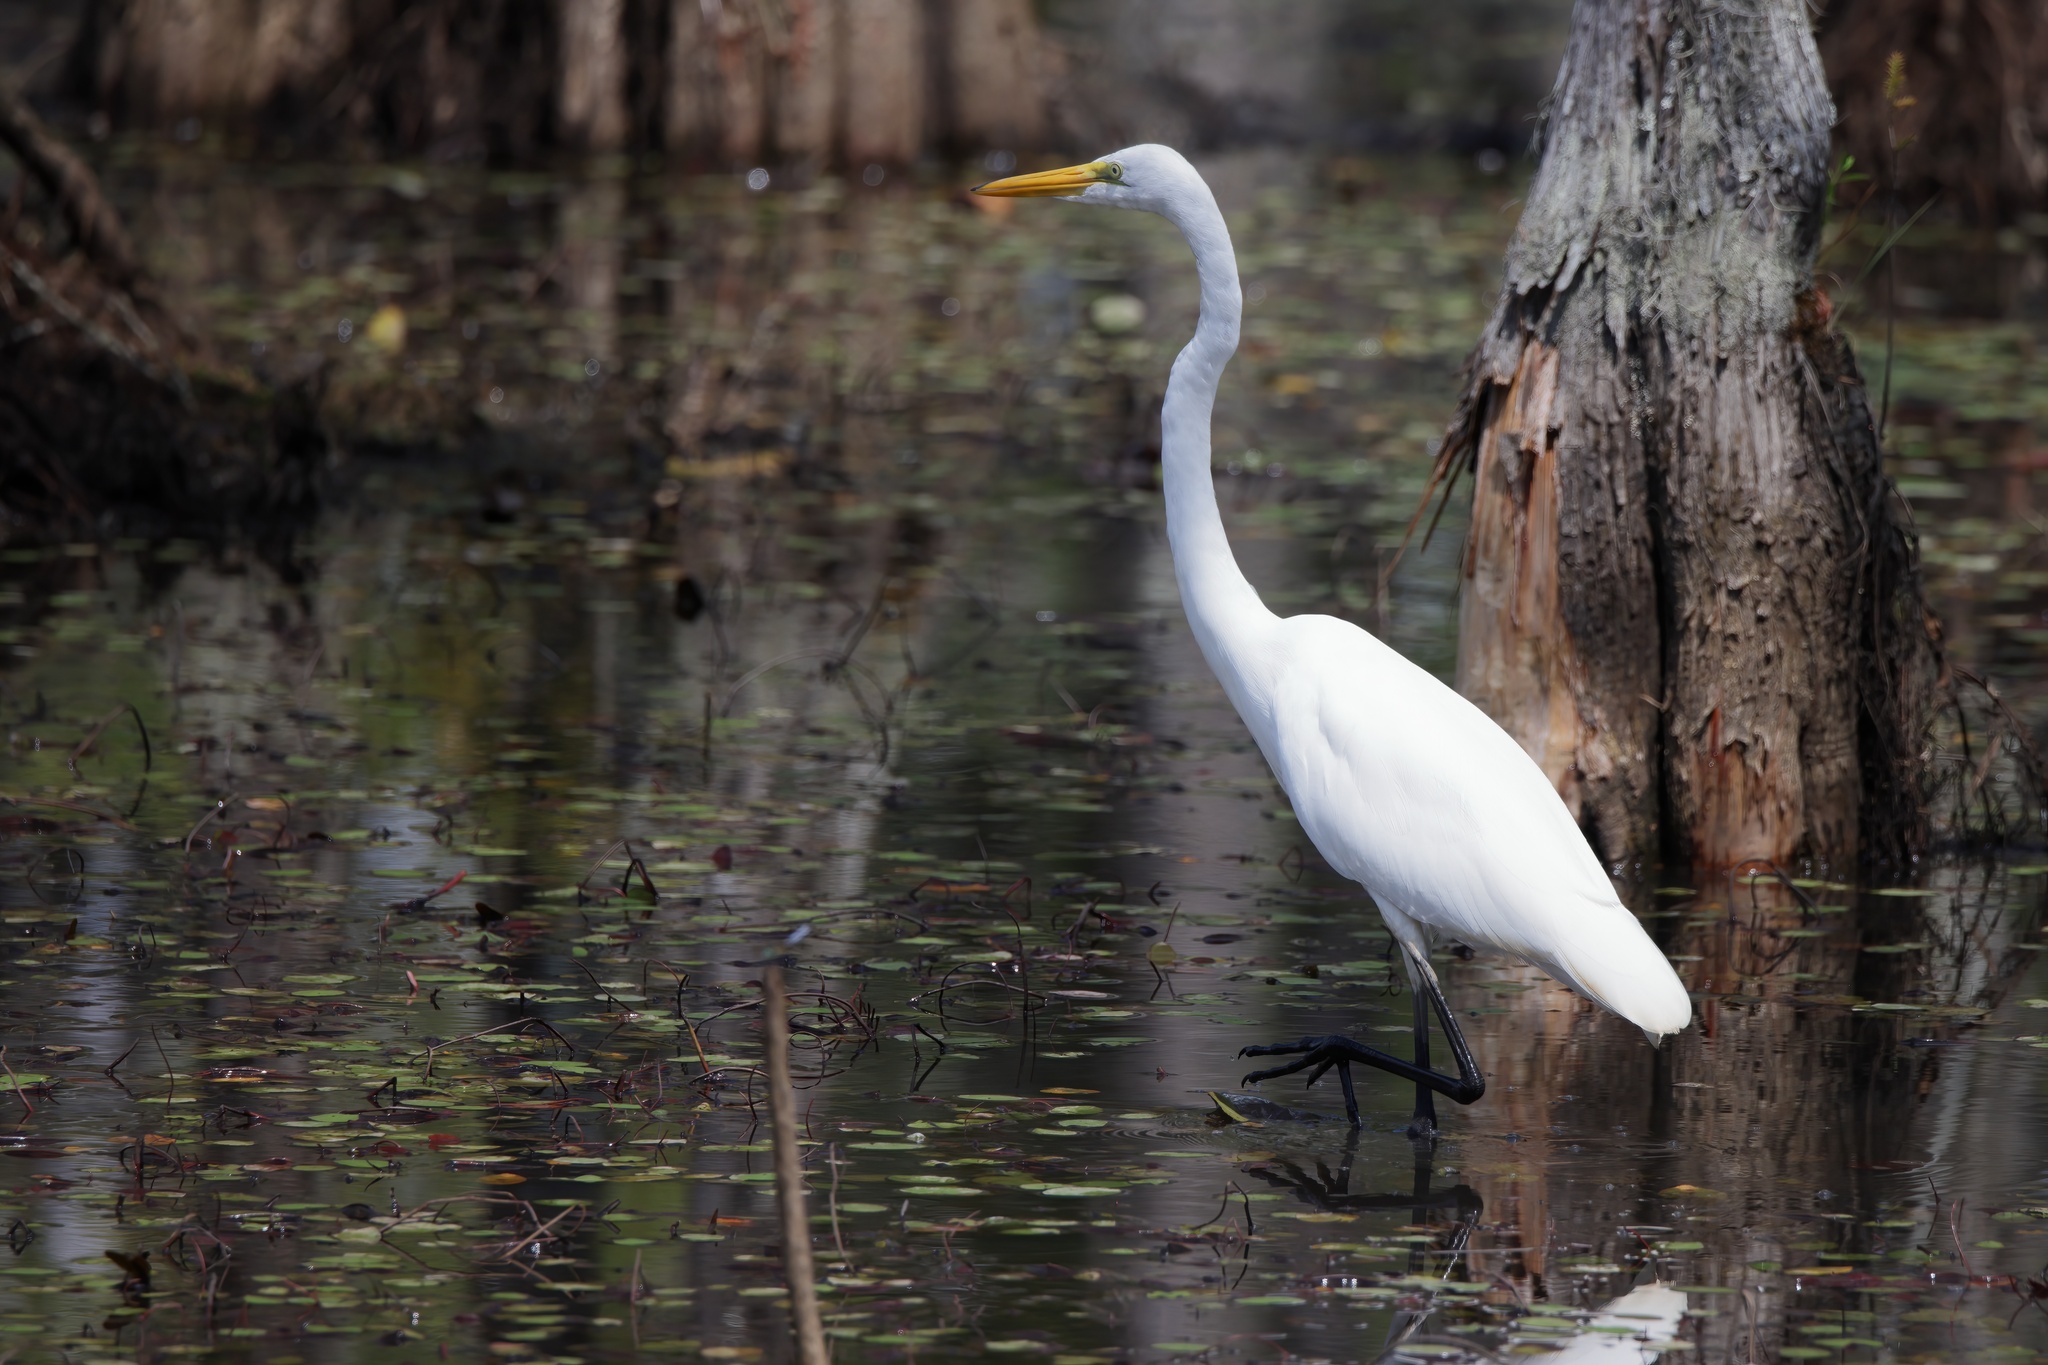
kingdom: Animalia
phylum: Chordata
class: Aves
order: Pelecaniformes
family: Ardeidae
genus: Ardea
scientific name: Ardea alba
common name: Great egret
